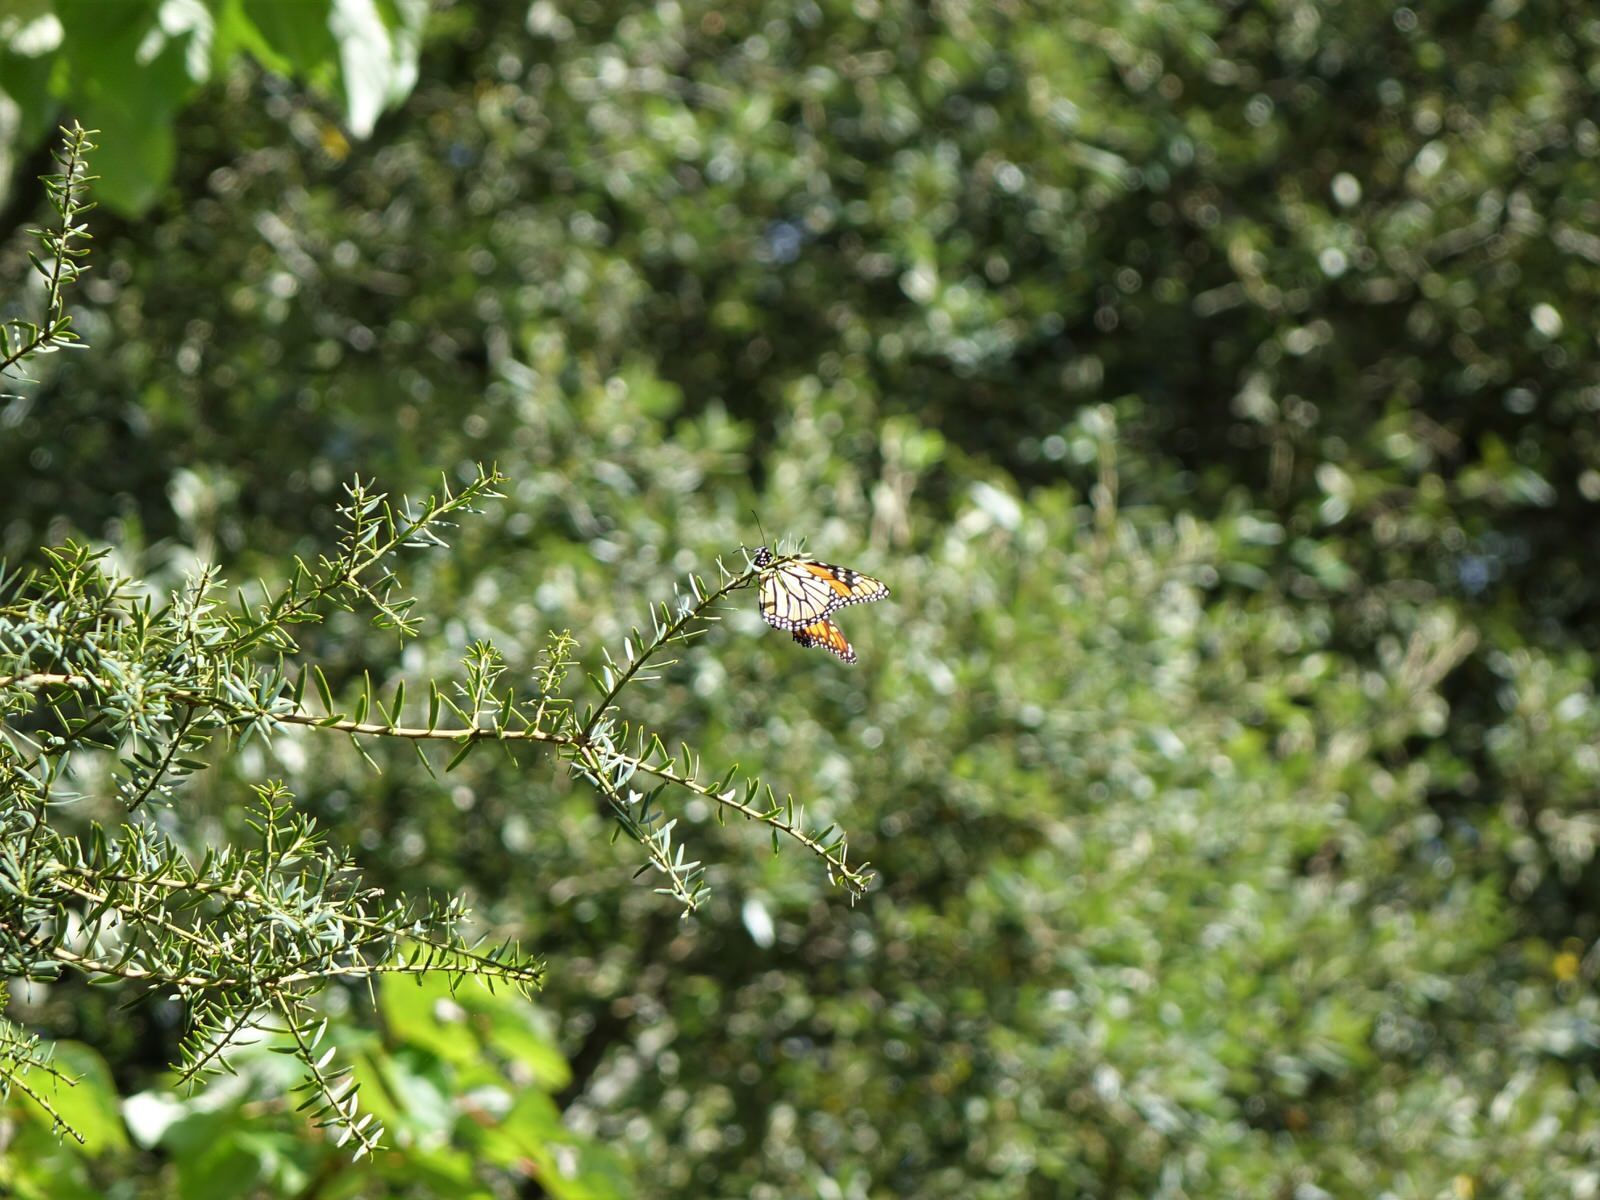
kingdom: Animalia
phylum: Arthropoda
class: Insecta
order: Lepidoptera
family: Nymphalidae
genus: Danaus
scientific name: Danaus plexippus
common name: Monarch
